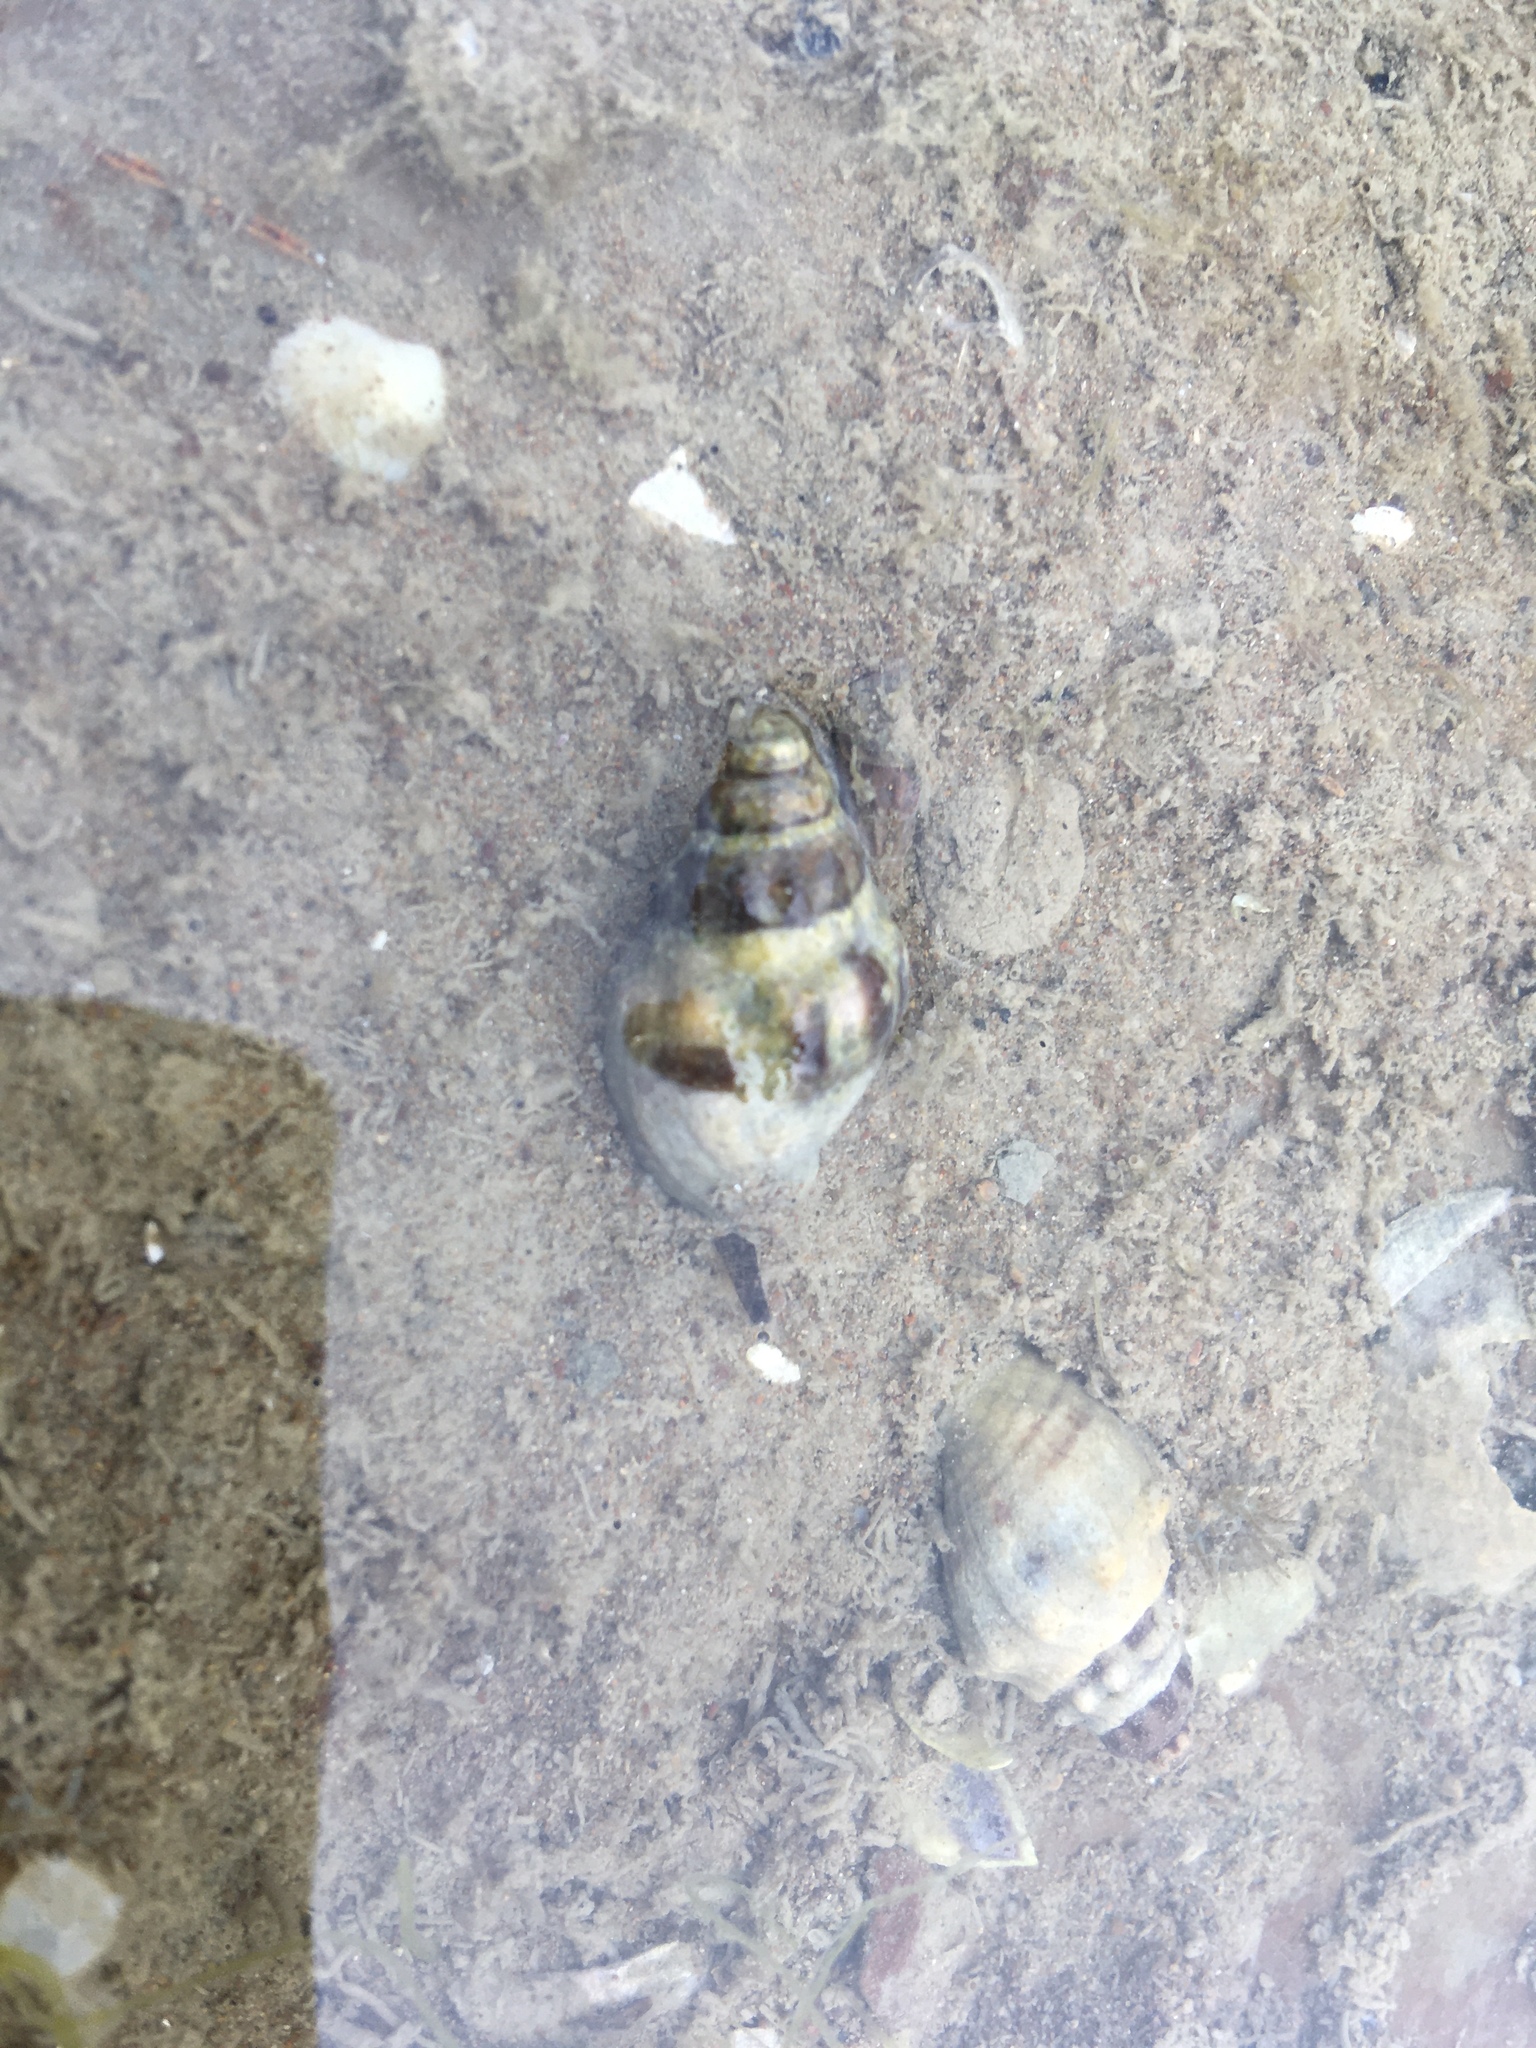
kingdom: Animalia
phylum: Mollusca
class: Gastropoda
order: Neogastropoda
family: Cominellidae
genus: Cominella
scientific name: Cominella glandiformis
